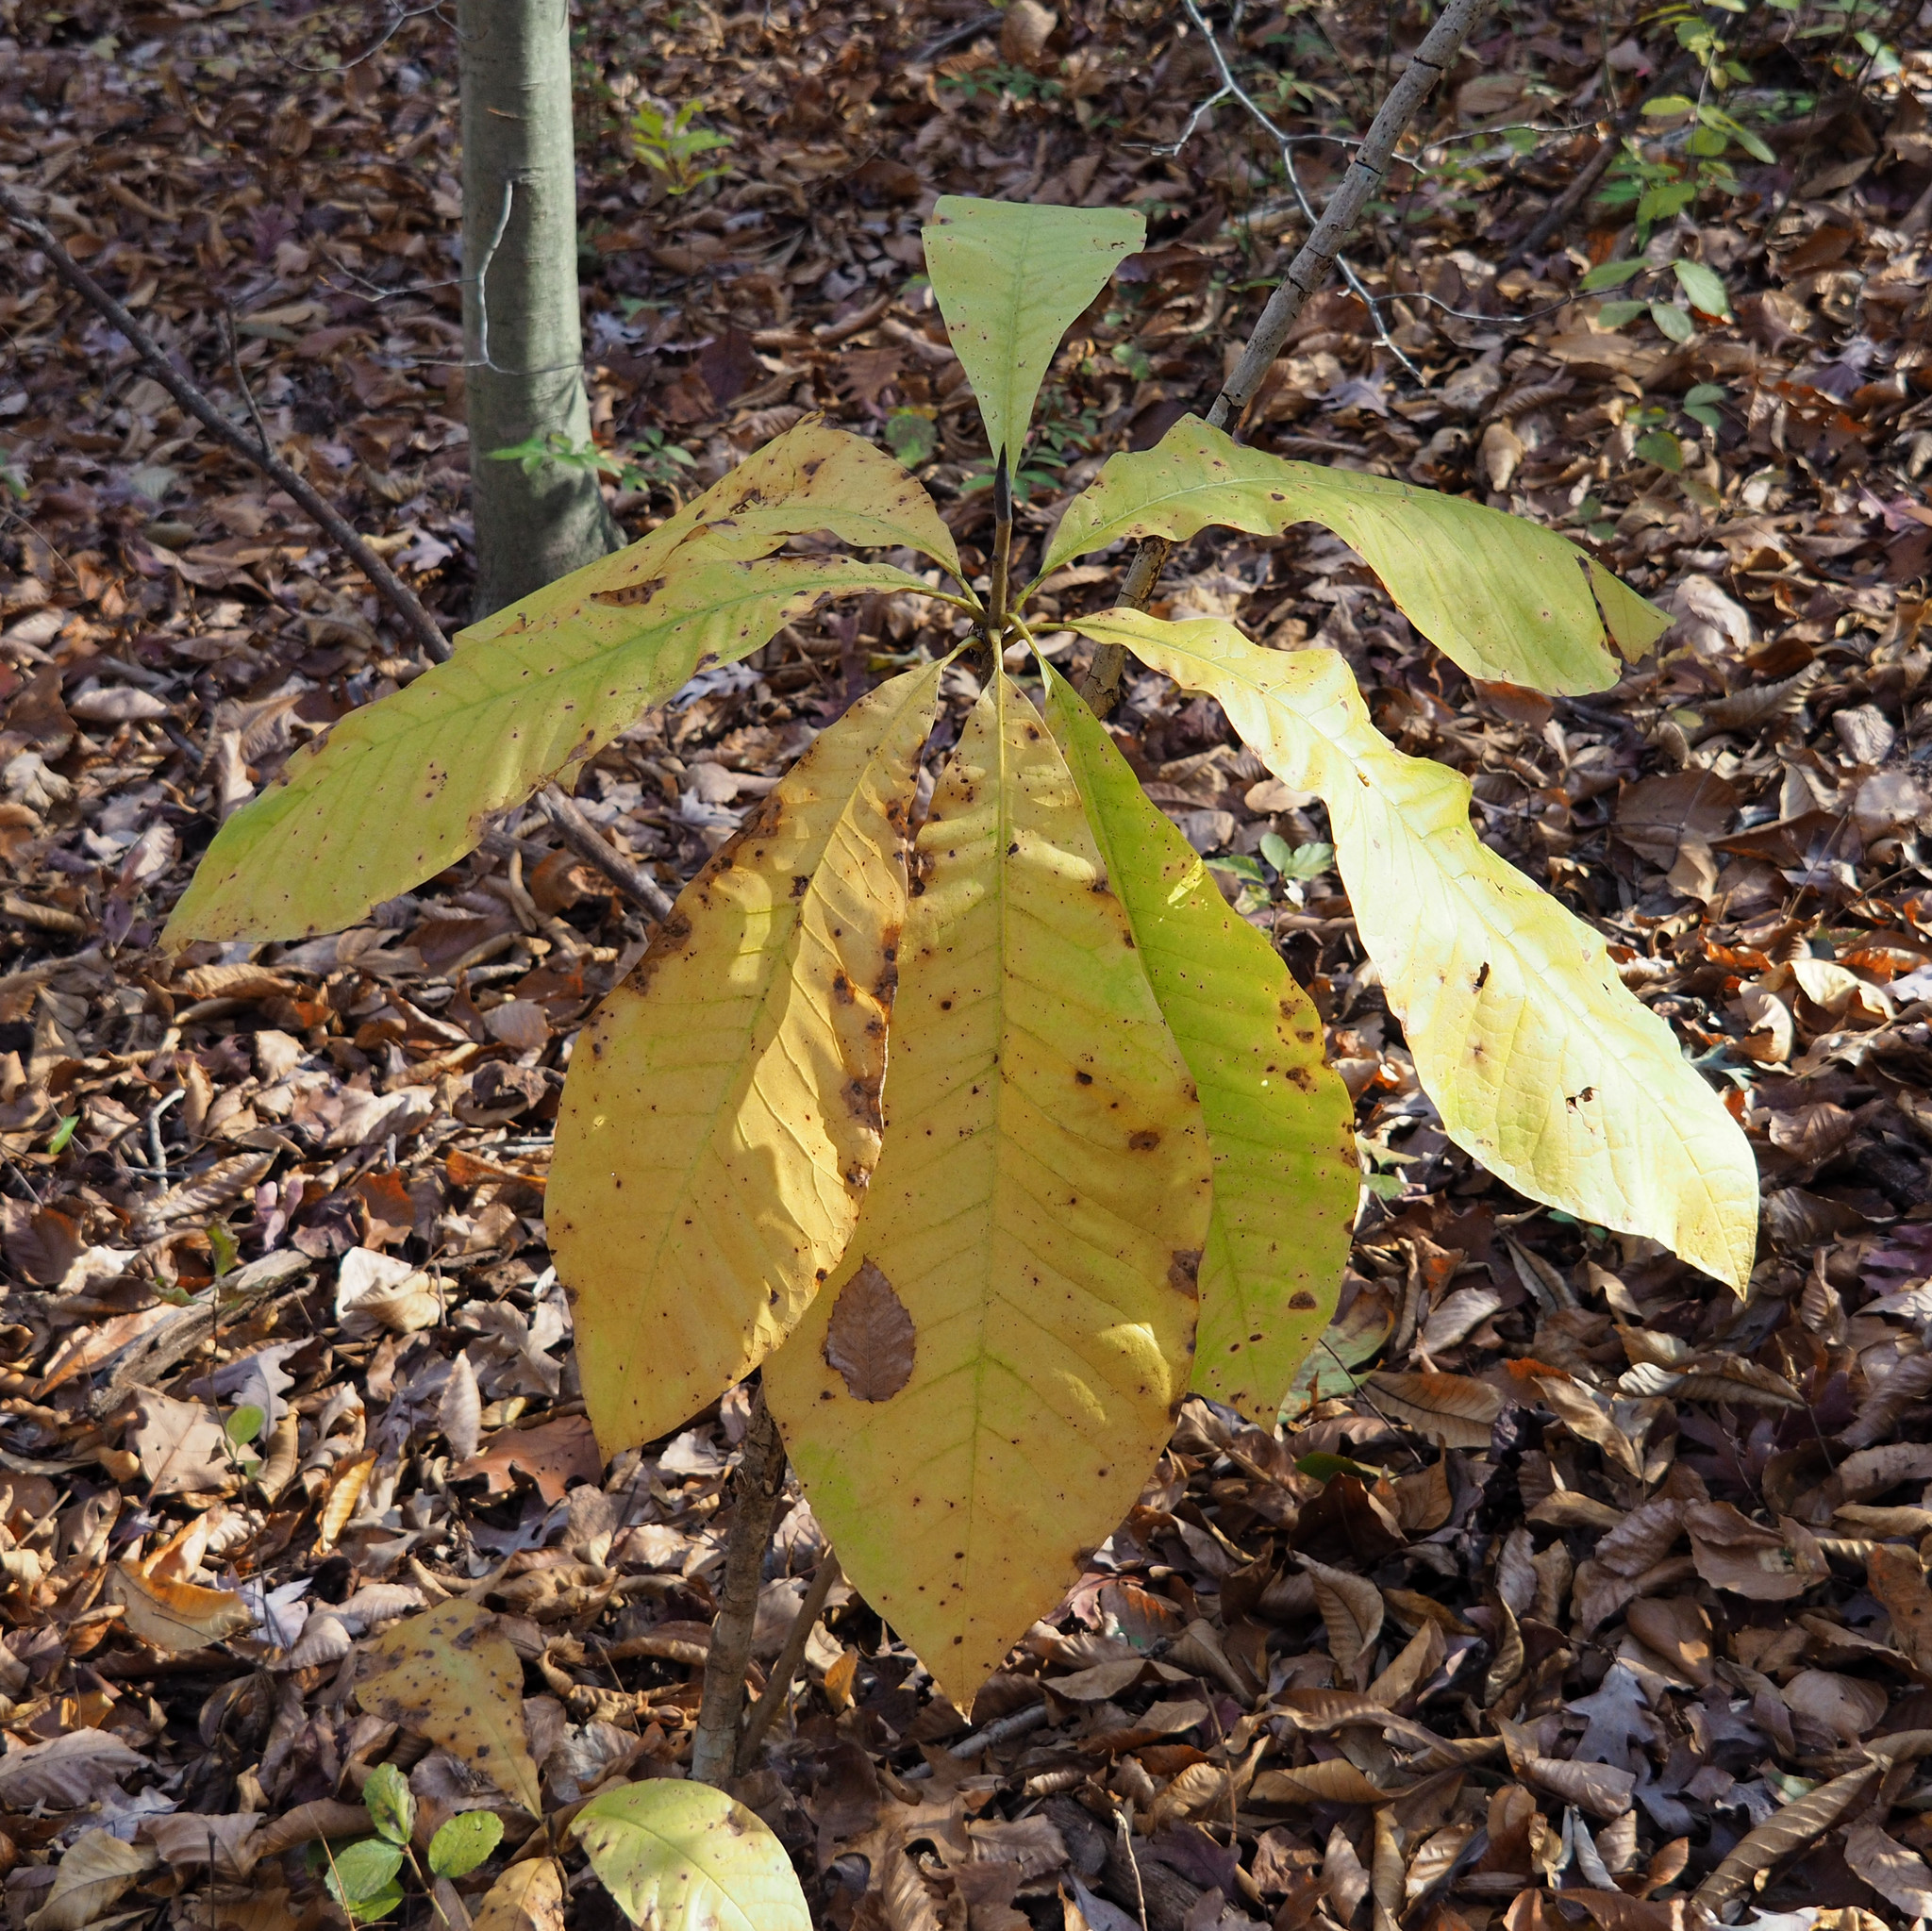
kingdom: Plantae
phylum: Tracheophyta
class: Magnoliopsida
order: Magnoliales
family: Magnoliaceae
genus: Magnolia
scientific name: Magnolia tripetala
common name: Umbrella magnolia
